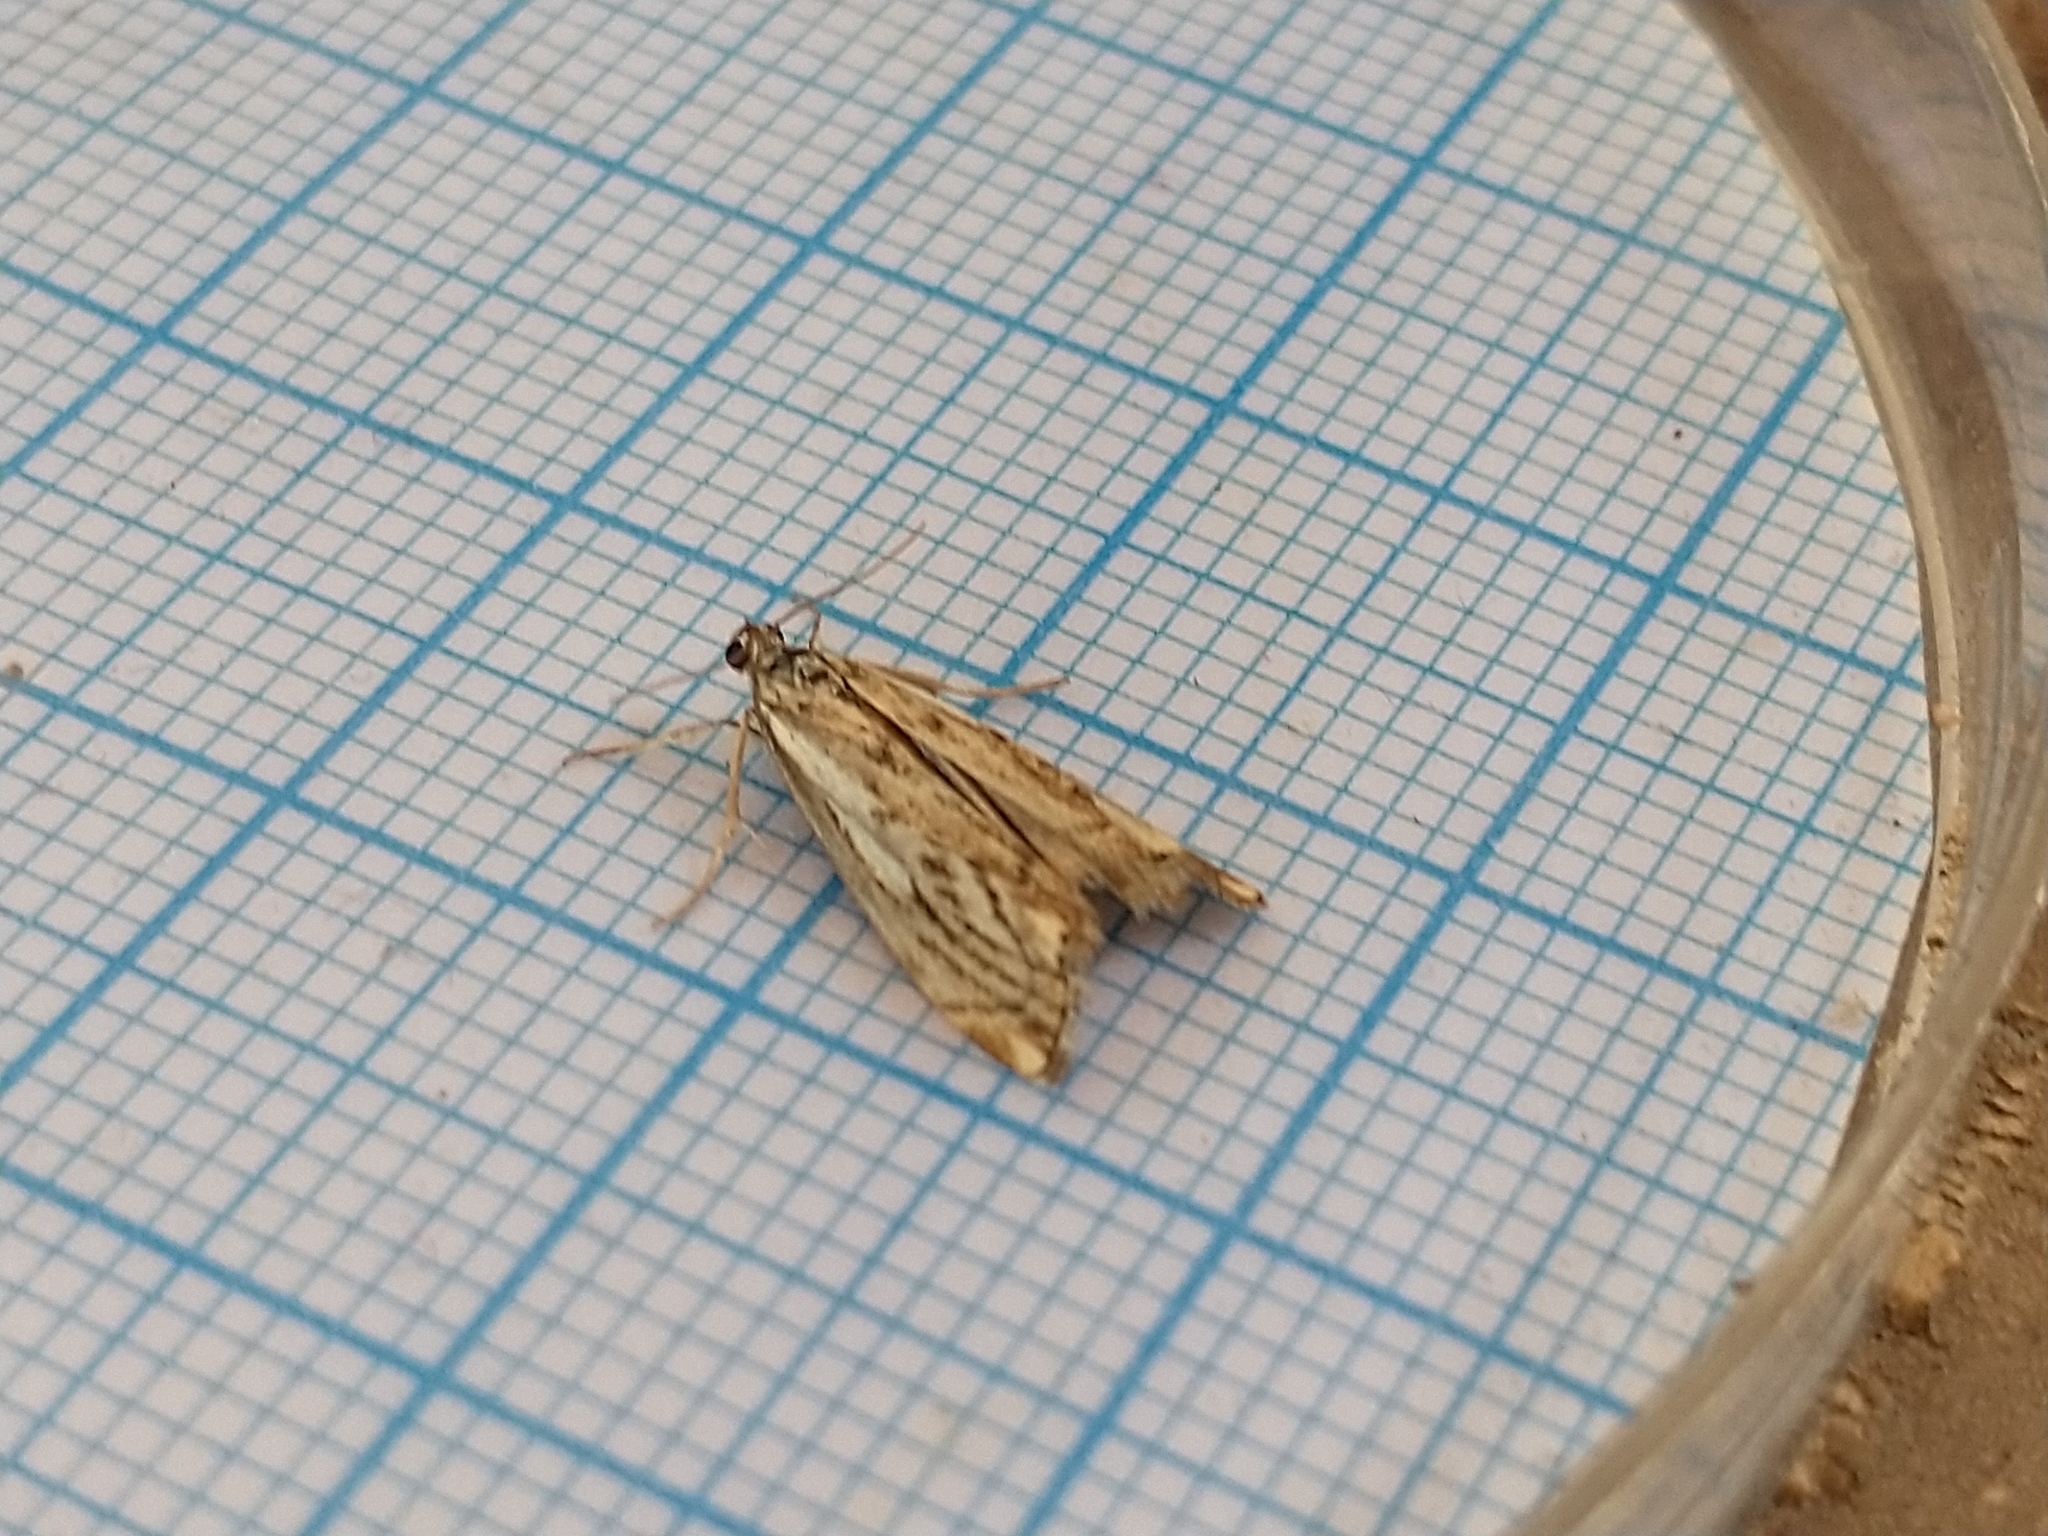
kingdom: Animalia
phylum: Arthropoda
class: Insecta
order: Lepidoptera
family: Crambidae
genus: Catoptria
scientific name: Catoptria falsella
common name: Chequered grass-veneer
